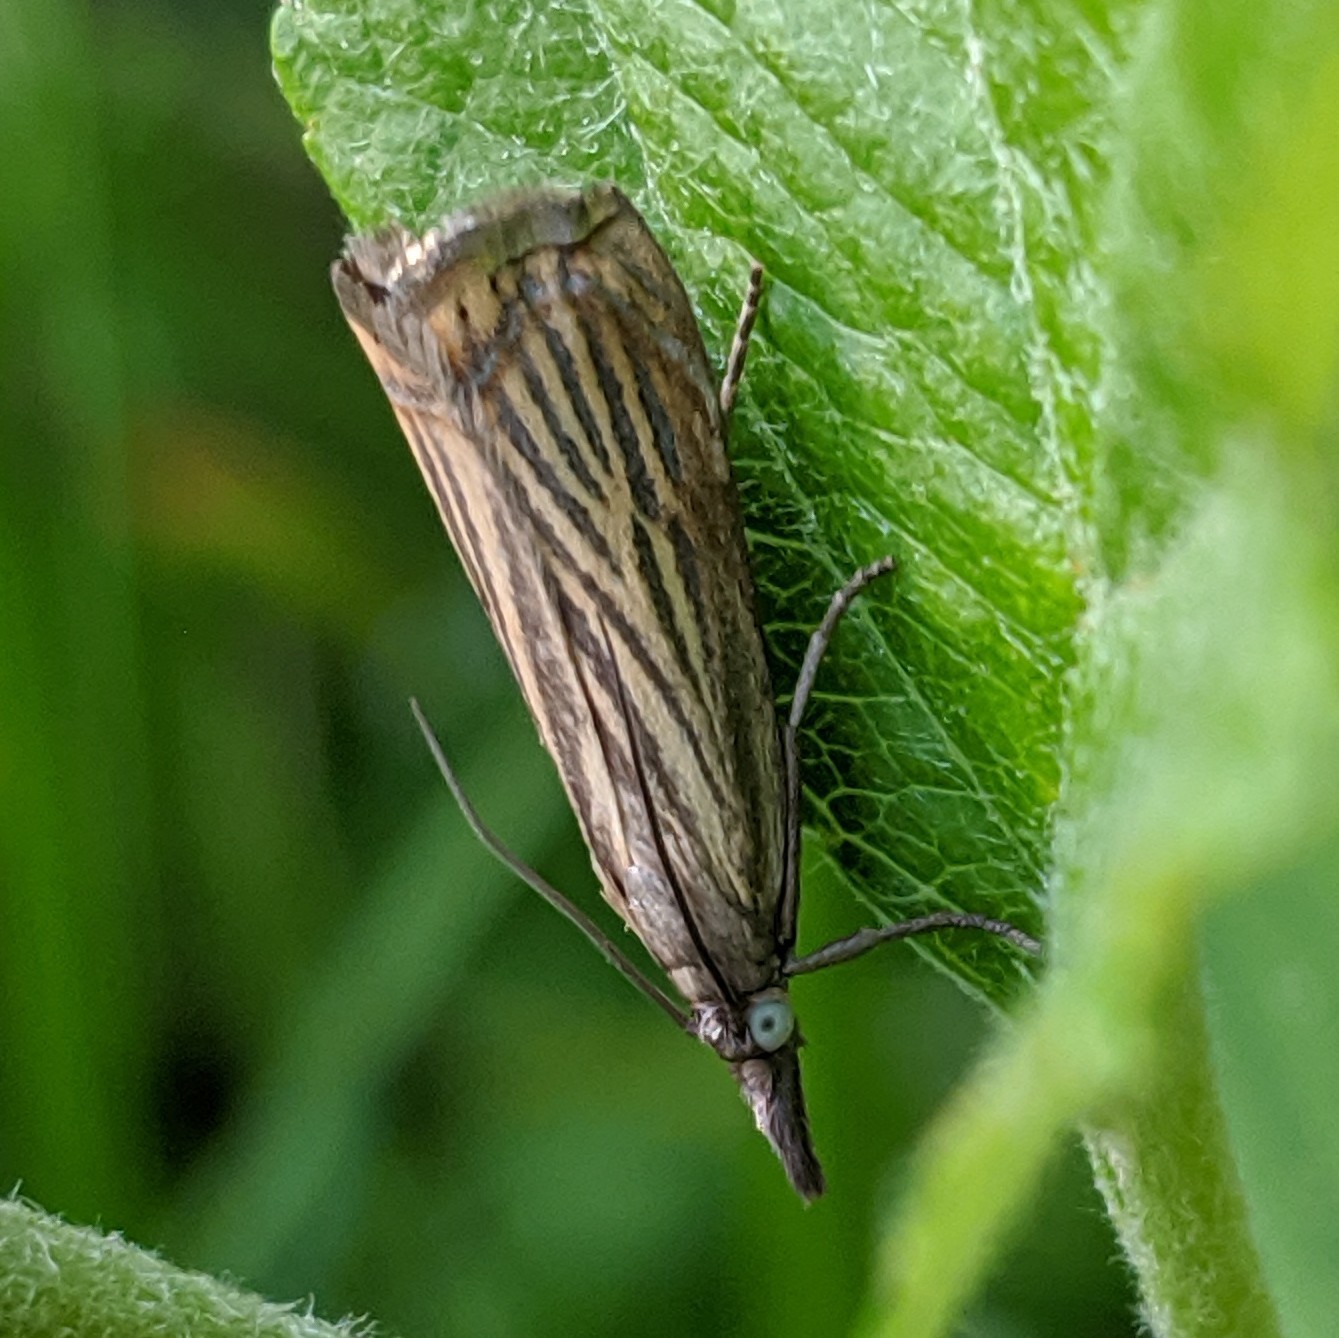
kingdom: Animalia
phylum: Arthropoda
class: Insecta
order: Lepidoptera
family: Crambidae
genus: Chrysoteuchia
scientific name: Chrysoteuchia culmella
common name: Garden grass-veneer
